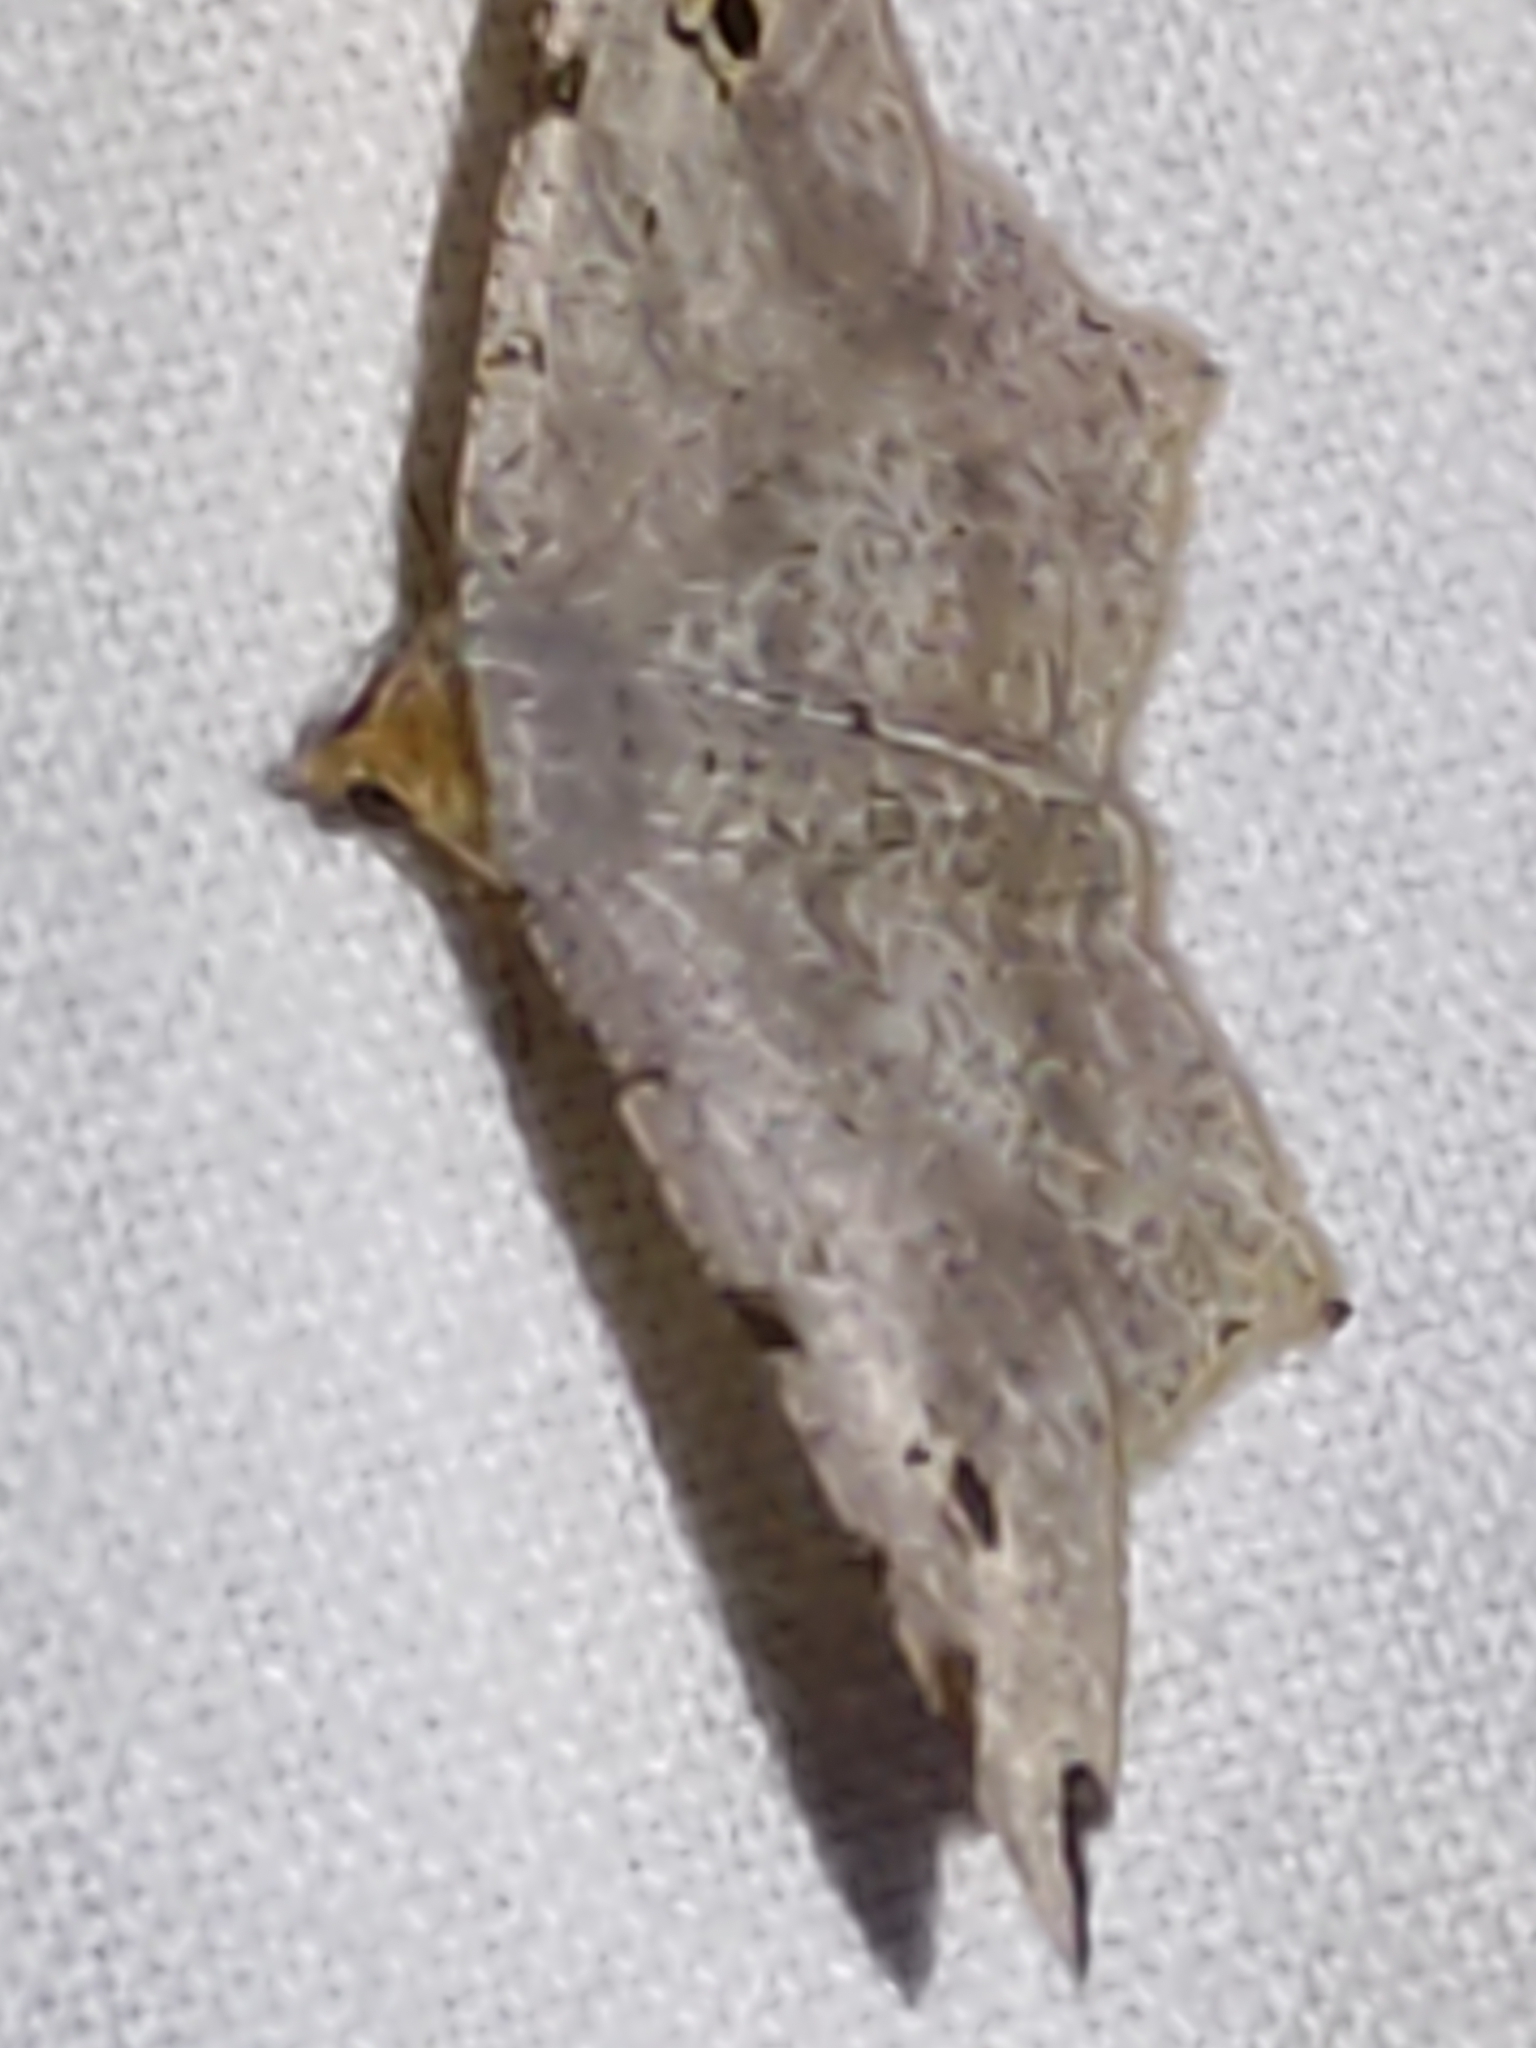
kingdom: Animalia
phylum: Arthropoda
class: Insecta
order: Lepidoptera
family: Geometridae
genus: Macaria
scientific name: Macaria alternata
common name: Sharp-angled peacock
